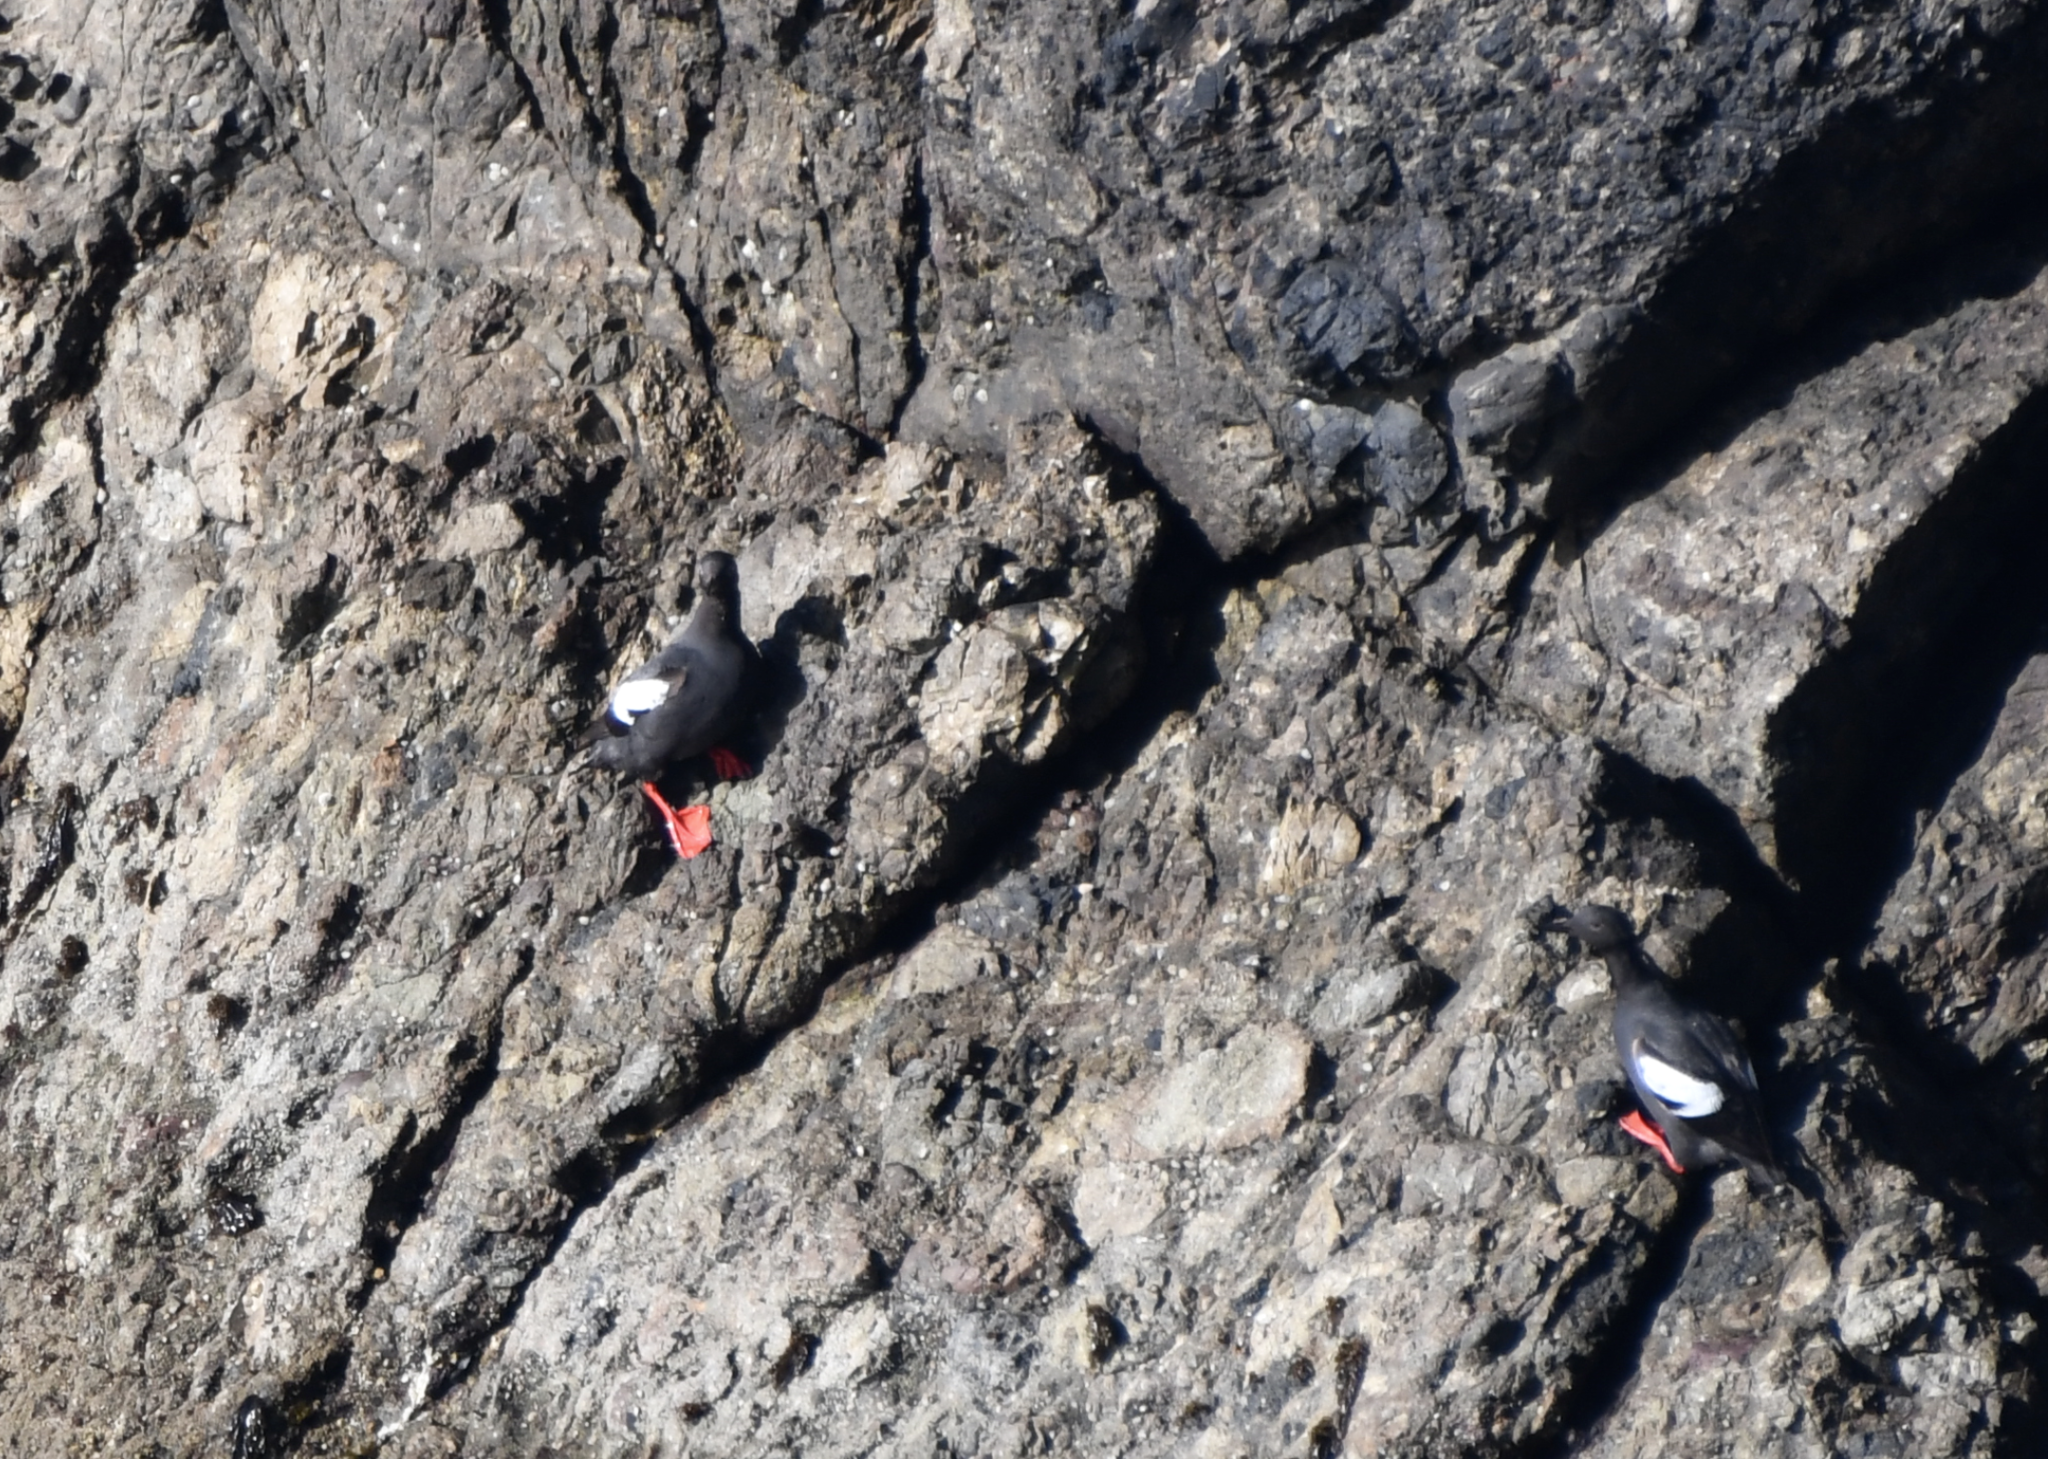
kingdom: Animalia
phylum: Chordata
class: Aves
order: Charadriiformes
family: Alcidae
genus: Cepphus
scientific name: Cepphus columba
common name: Pigeon guillemot
